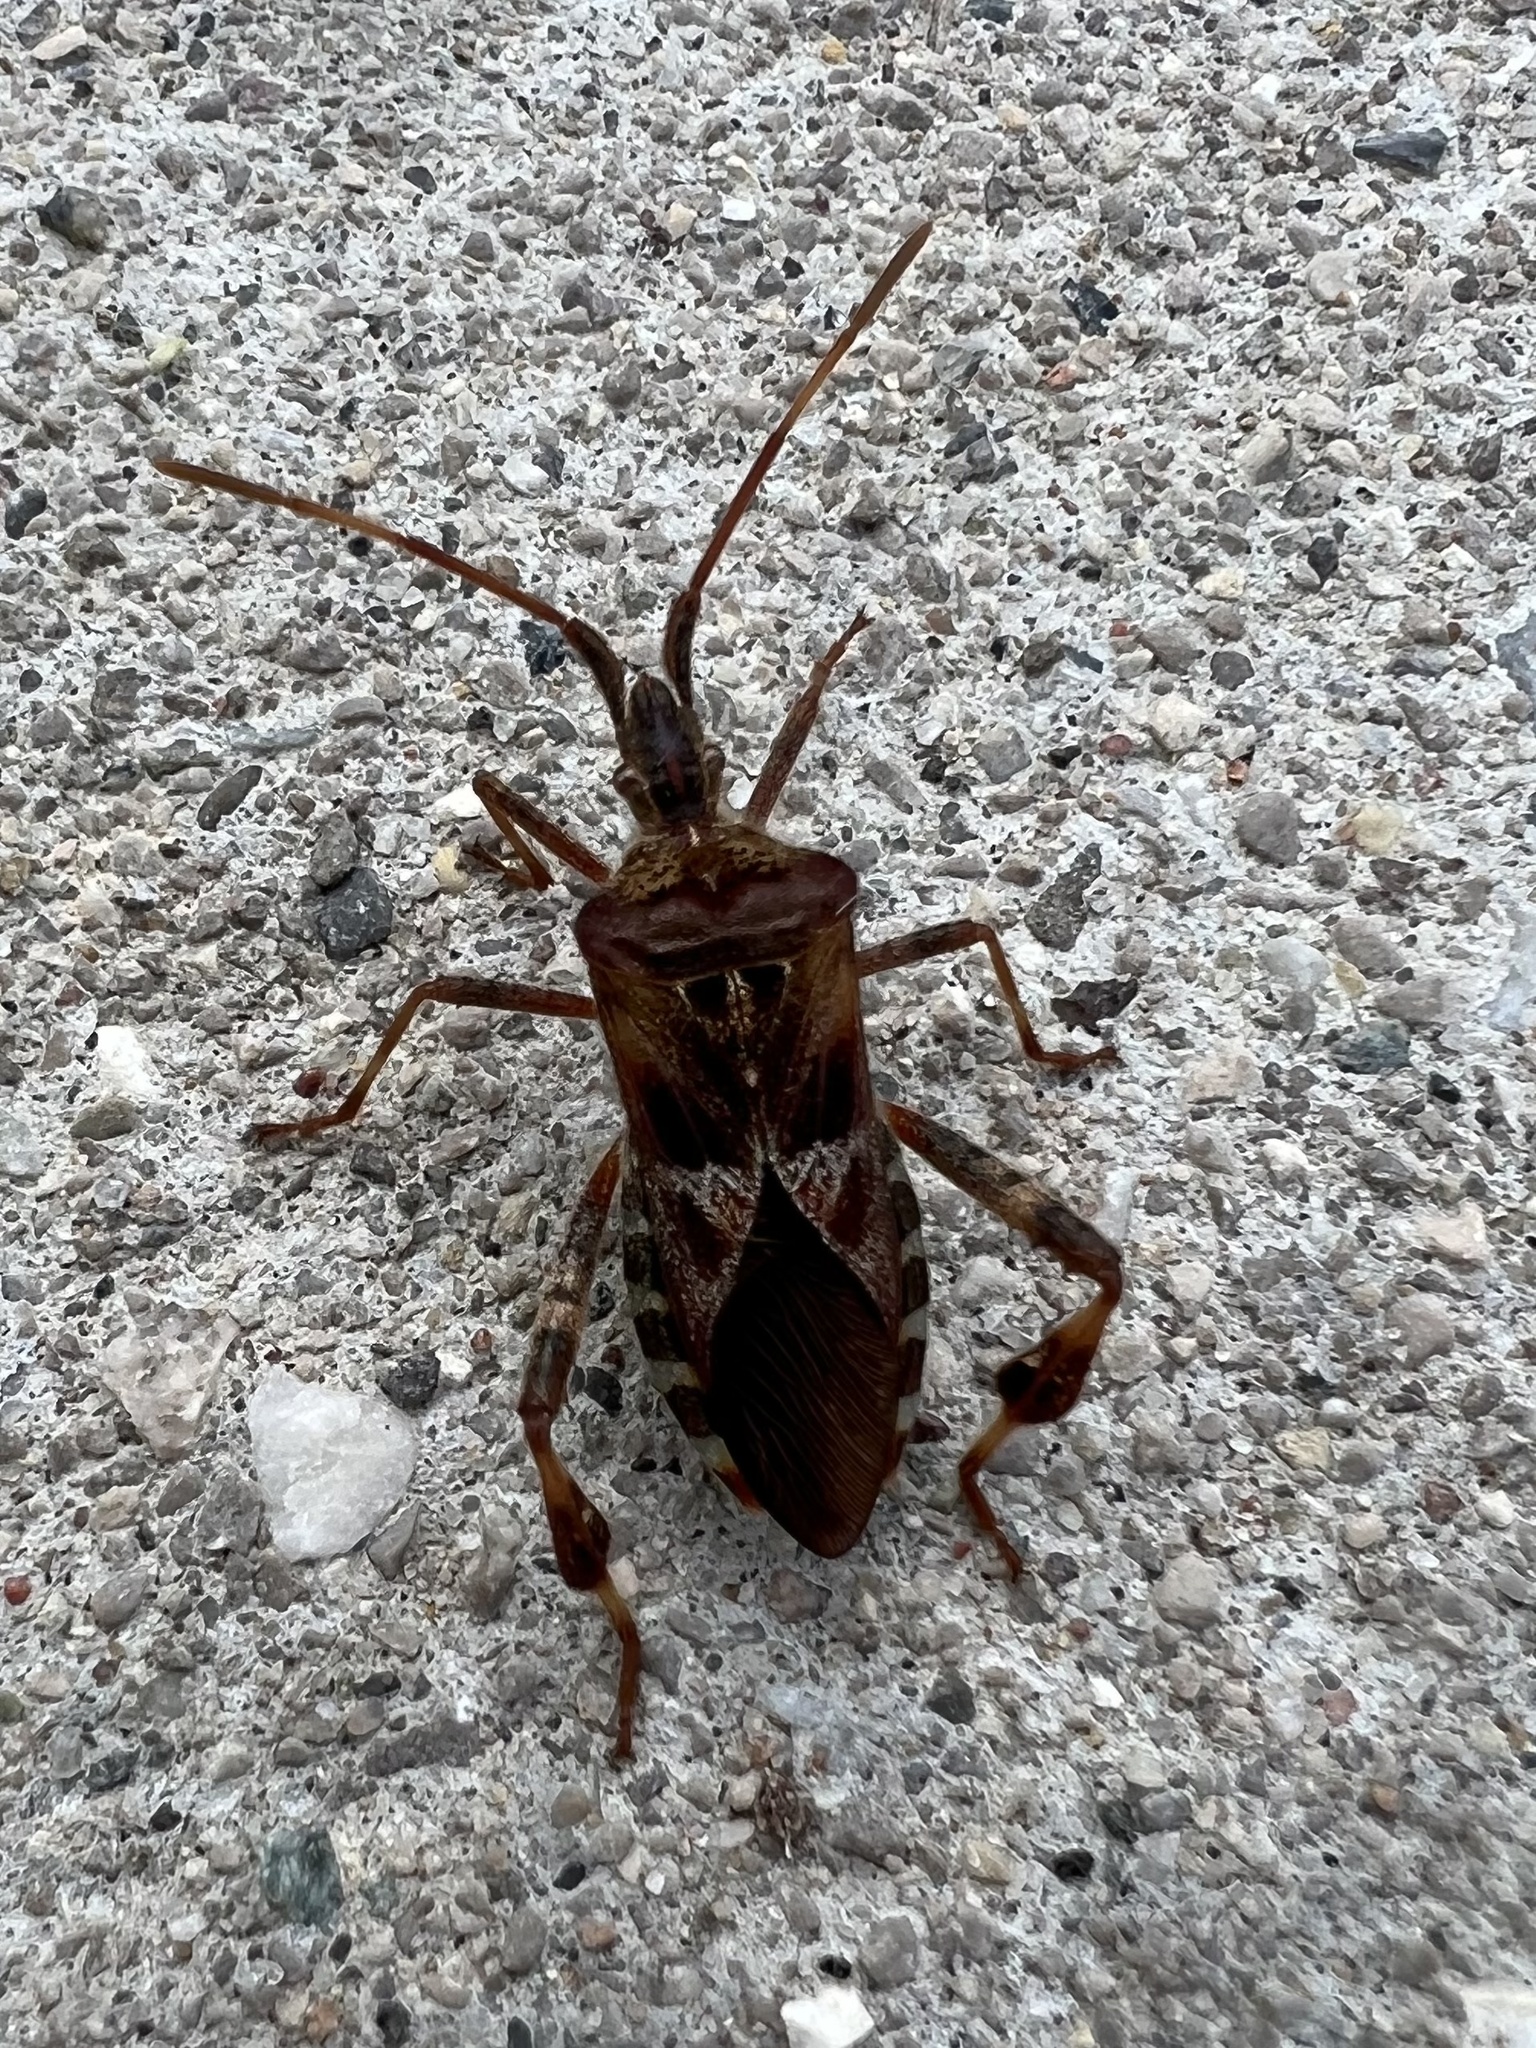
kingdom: Animalia
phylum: Arthropoda
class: Insecta
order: Hemiptera
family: Coreidae
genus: Leptoglossus
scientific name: Leptoglossus occidentalis
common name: Western conifer-seed bug
